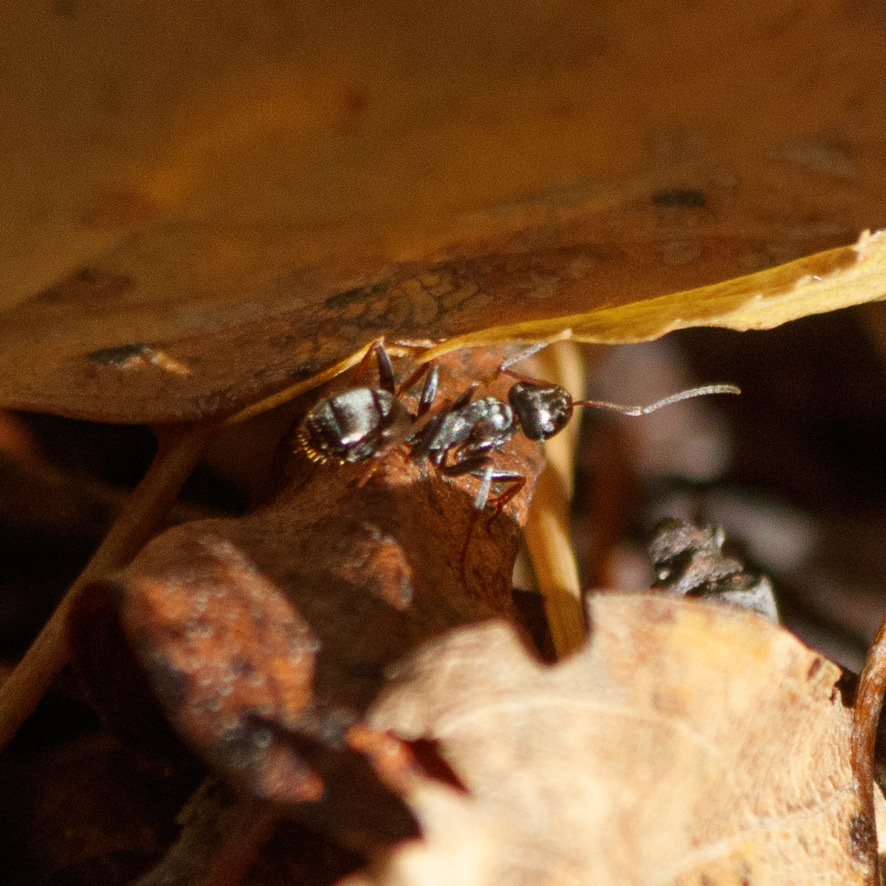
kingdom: Animalia
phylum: Arthropoda
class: Insecta
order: Hymenoptera
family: Formicidae
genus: Formica
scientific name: Formica
